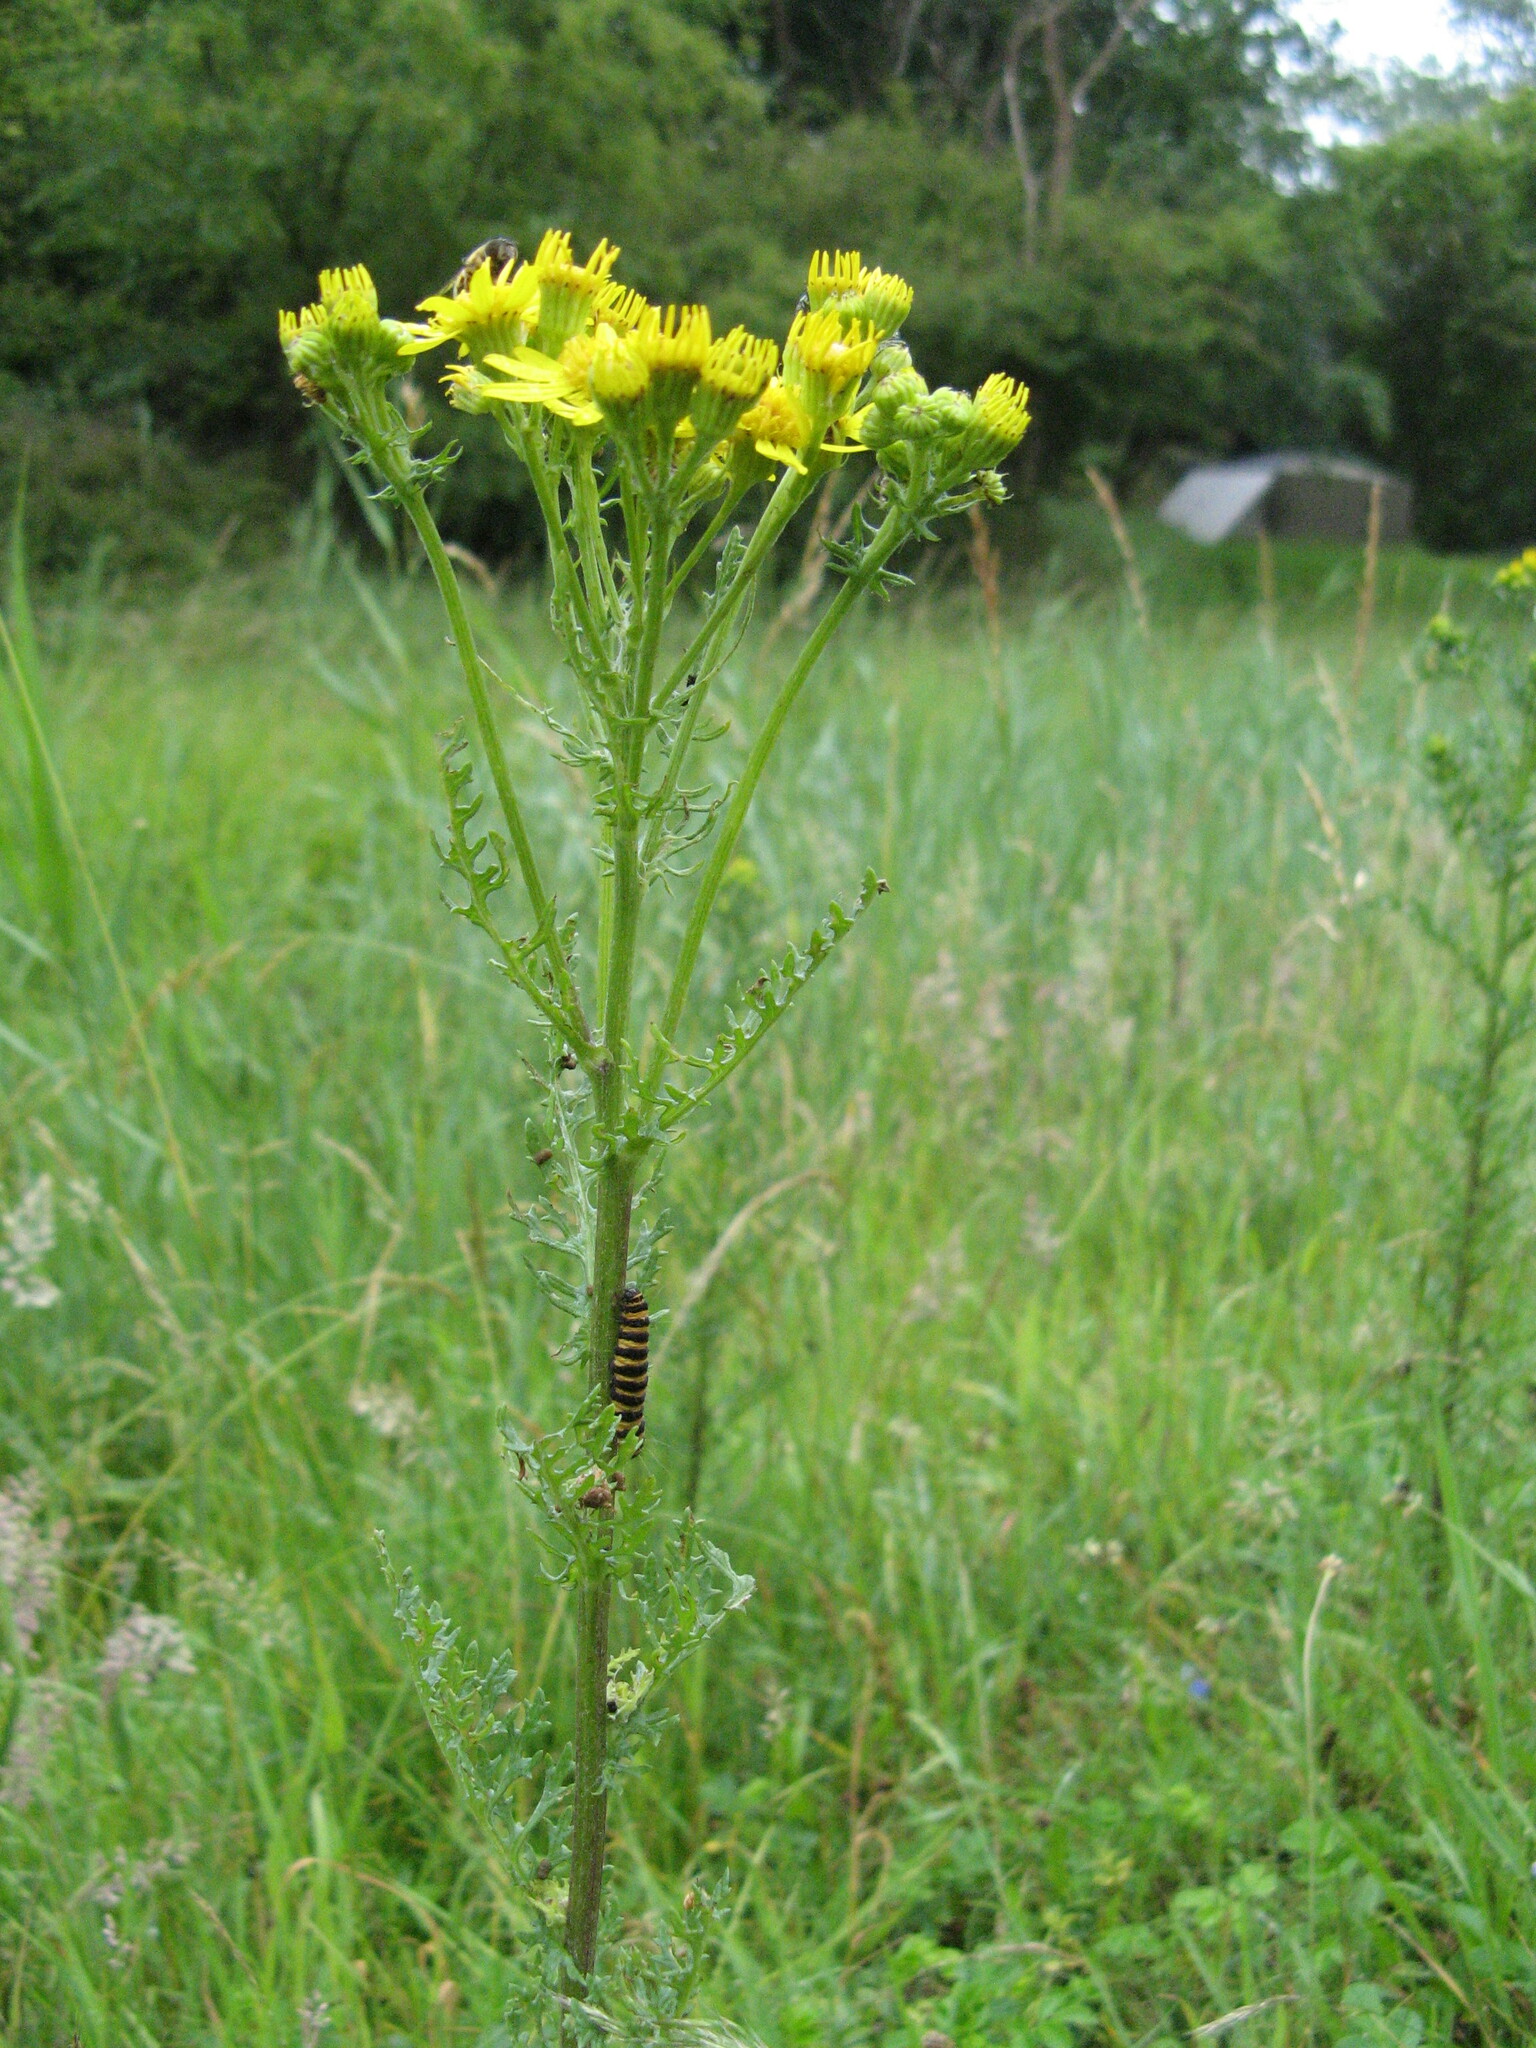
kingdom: Plantae
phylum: Tracheophyta
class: Magnoliopsida
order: Asterales
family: Asteraceae
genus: Jacobaea
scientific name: Jacobaea vulgaris
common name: Stinking willie
